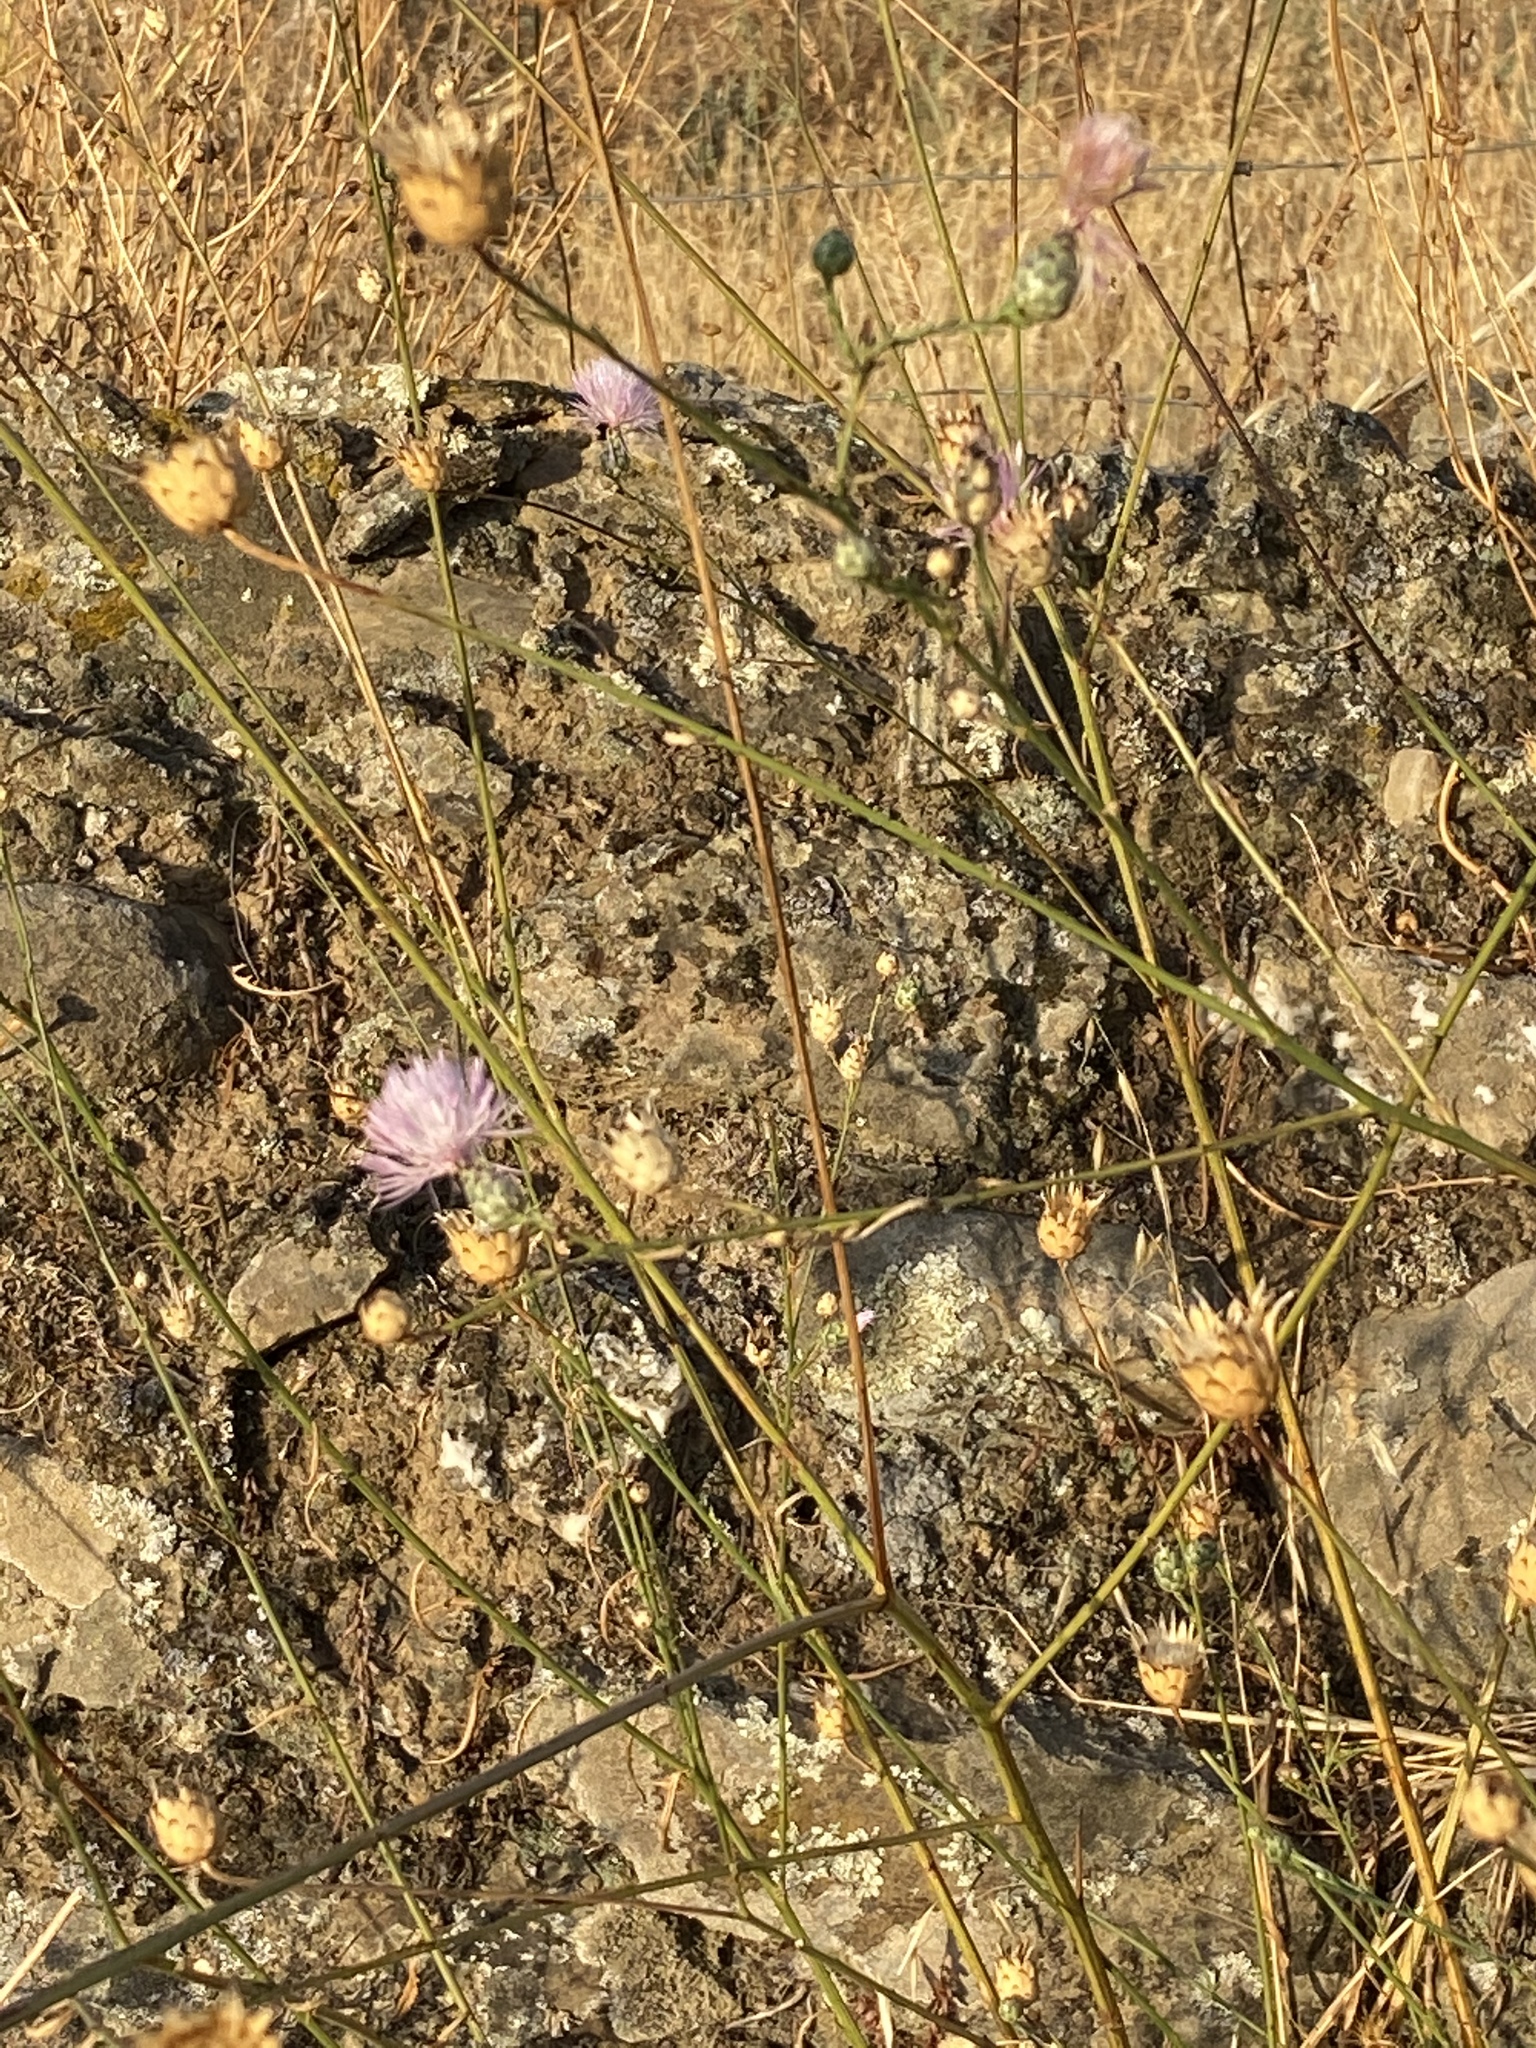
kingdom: Plantae
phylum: Tracheophyta
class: Magnoliopsida
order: Asterales
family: Asteraceae
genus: Mantisalca
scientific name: Mantisalca salmantica
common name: Dagger flower
